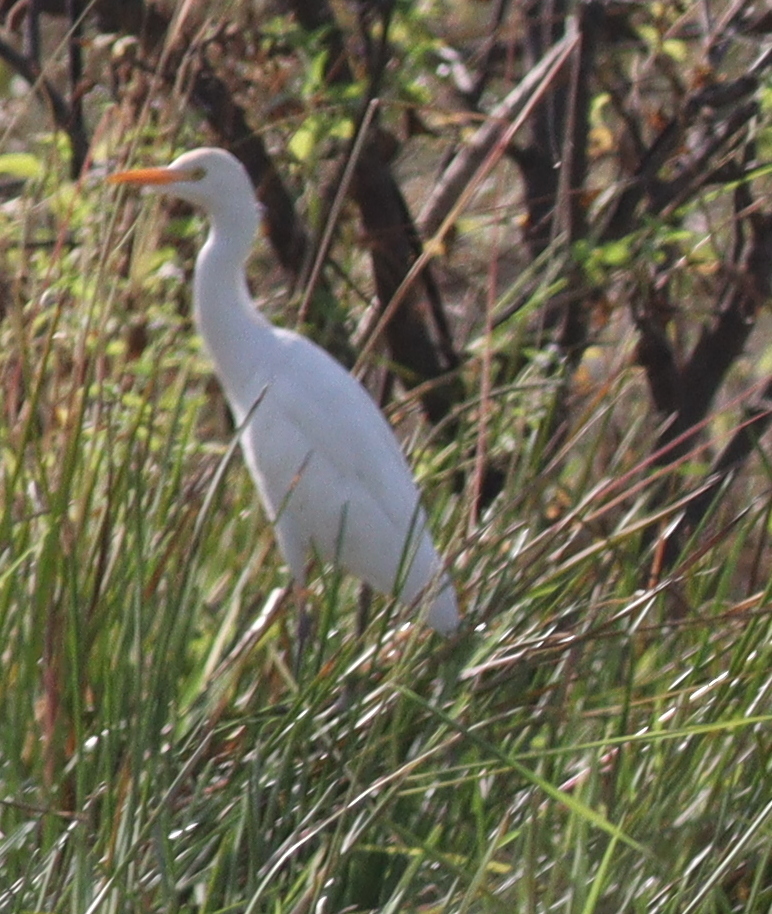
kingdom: Animalia
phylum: Chordata
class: Aves
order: Pelecaniformes
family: Ardeidae
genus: Bubulcus
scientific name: Bubulcus ibis
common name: Cattle egret
